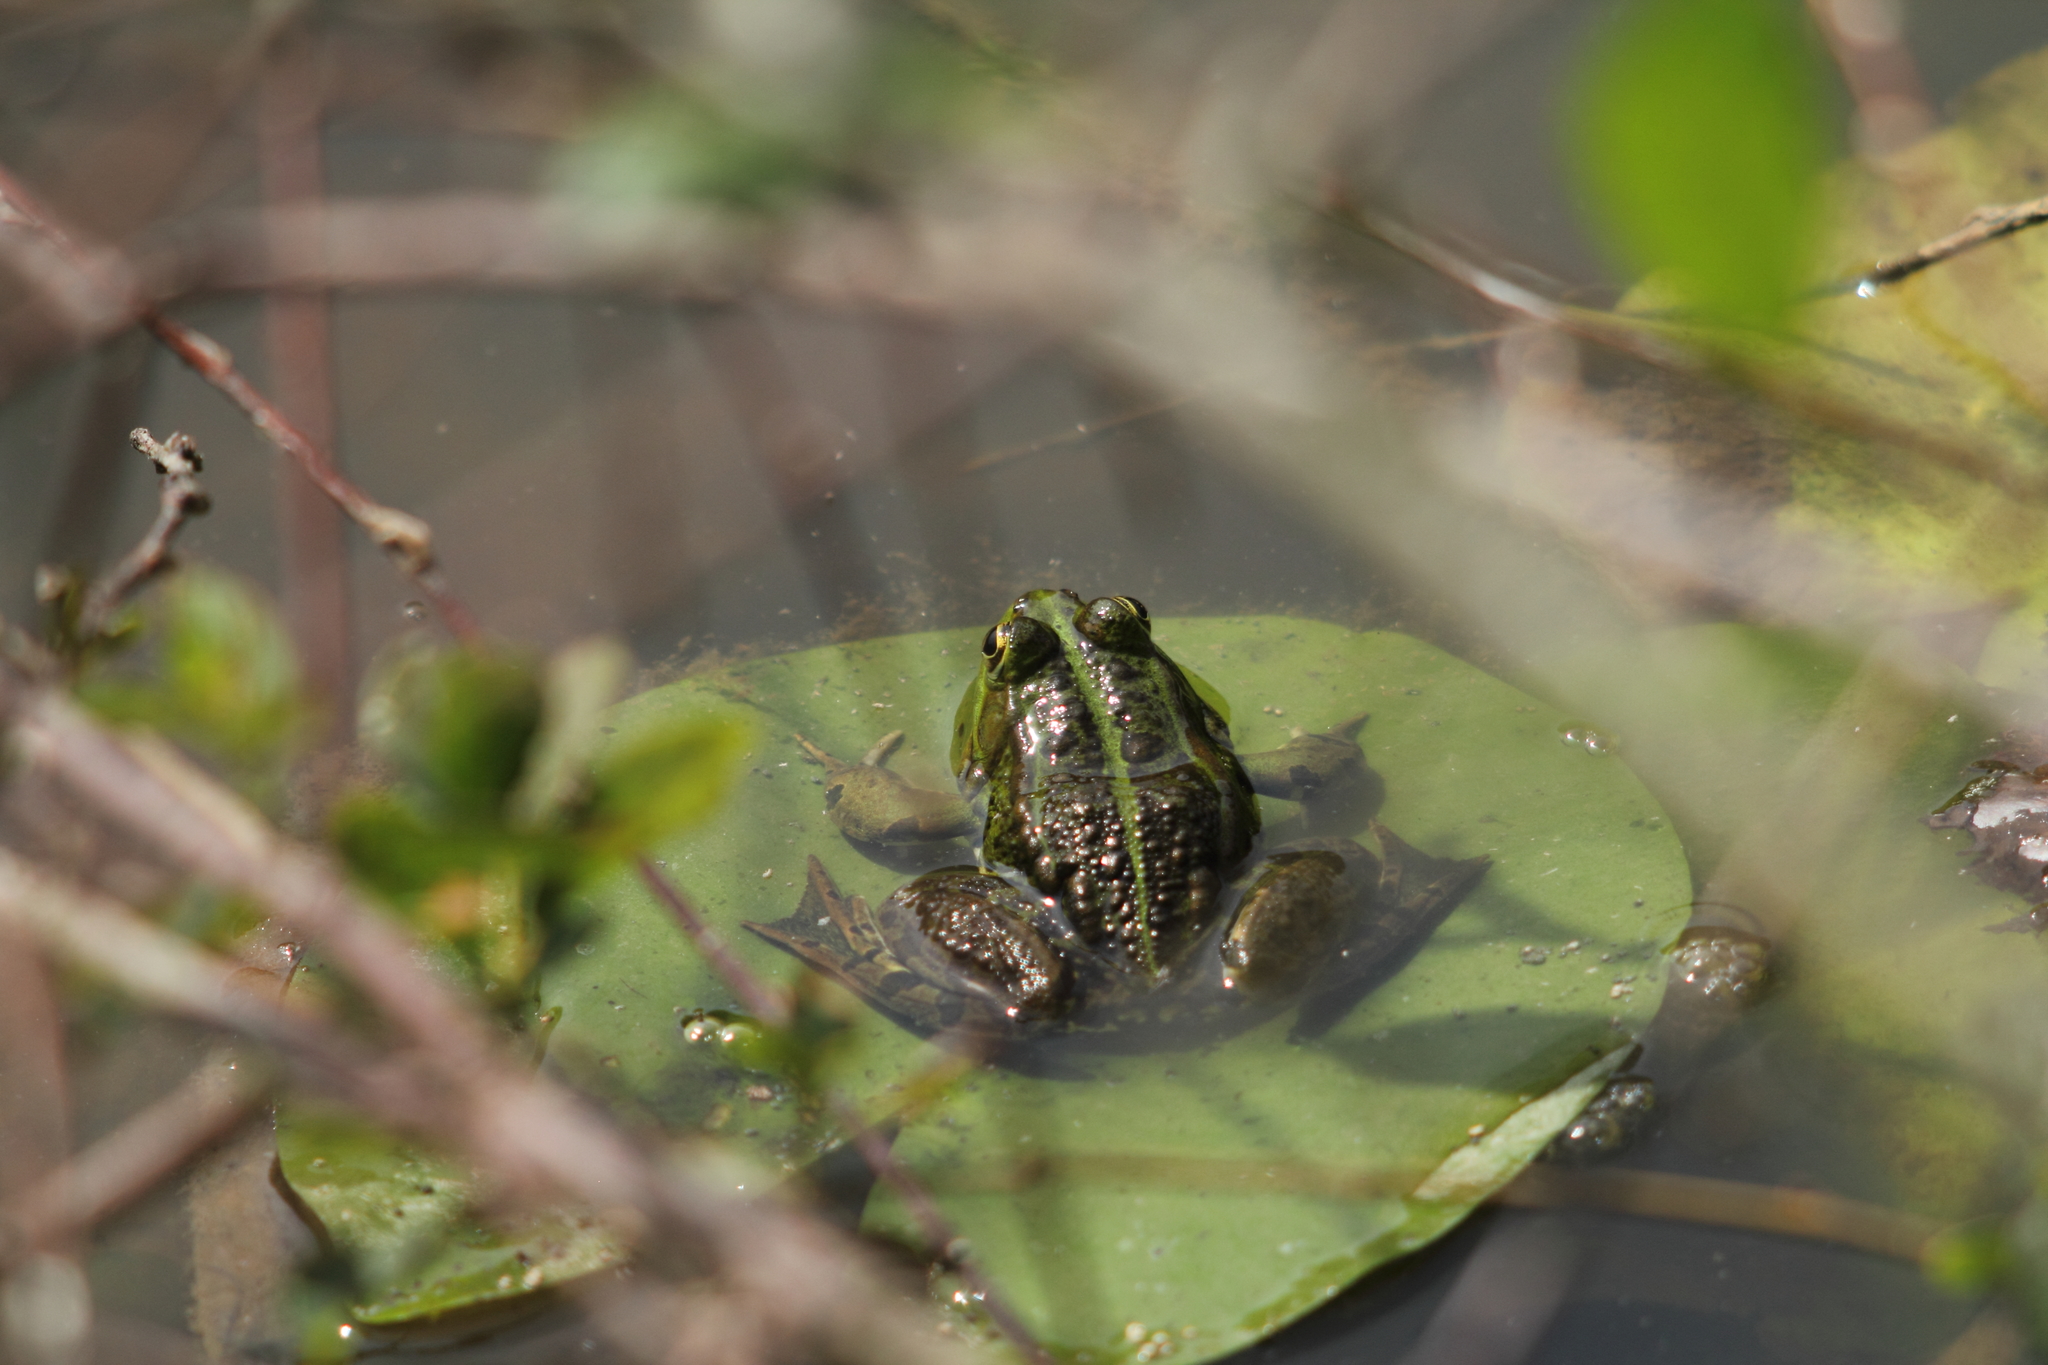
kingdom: Animalia
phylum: Chordata
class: Amphibia
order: Anura
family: Ranidae
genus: Pelophylax
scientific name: Pelophylax
